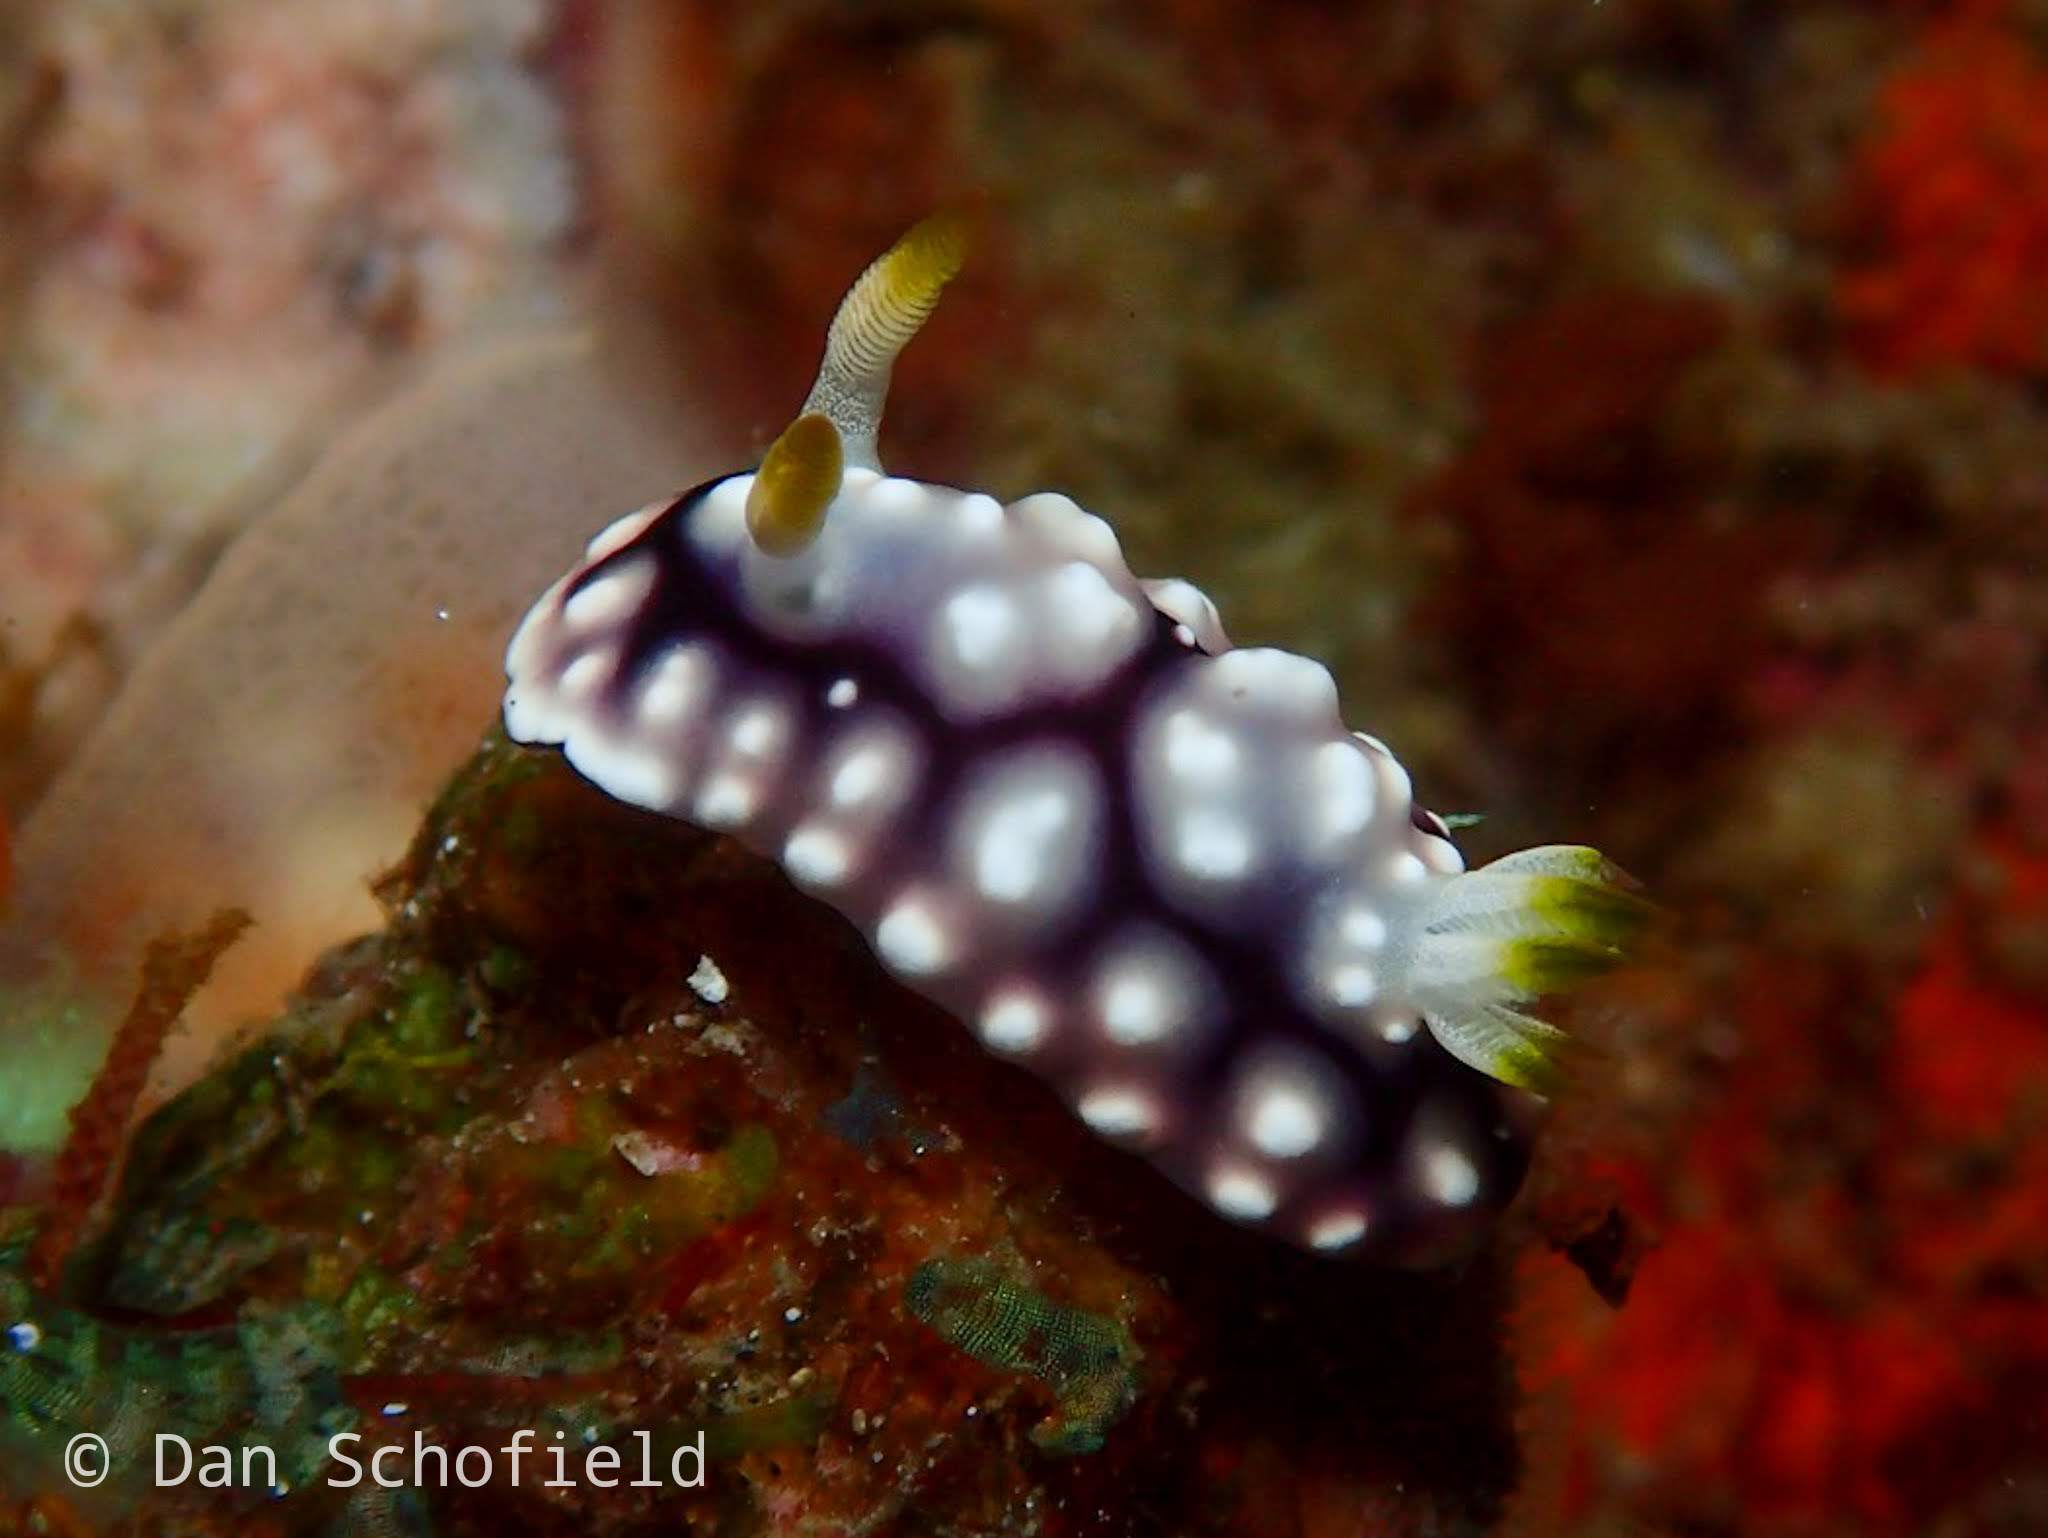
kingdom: Animalia
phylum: Mollusca
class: Gastropoda
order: Nudibranchia
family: Chromodorididae
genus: Goniobranchus
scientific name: Goniobranchus geometricus
